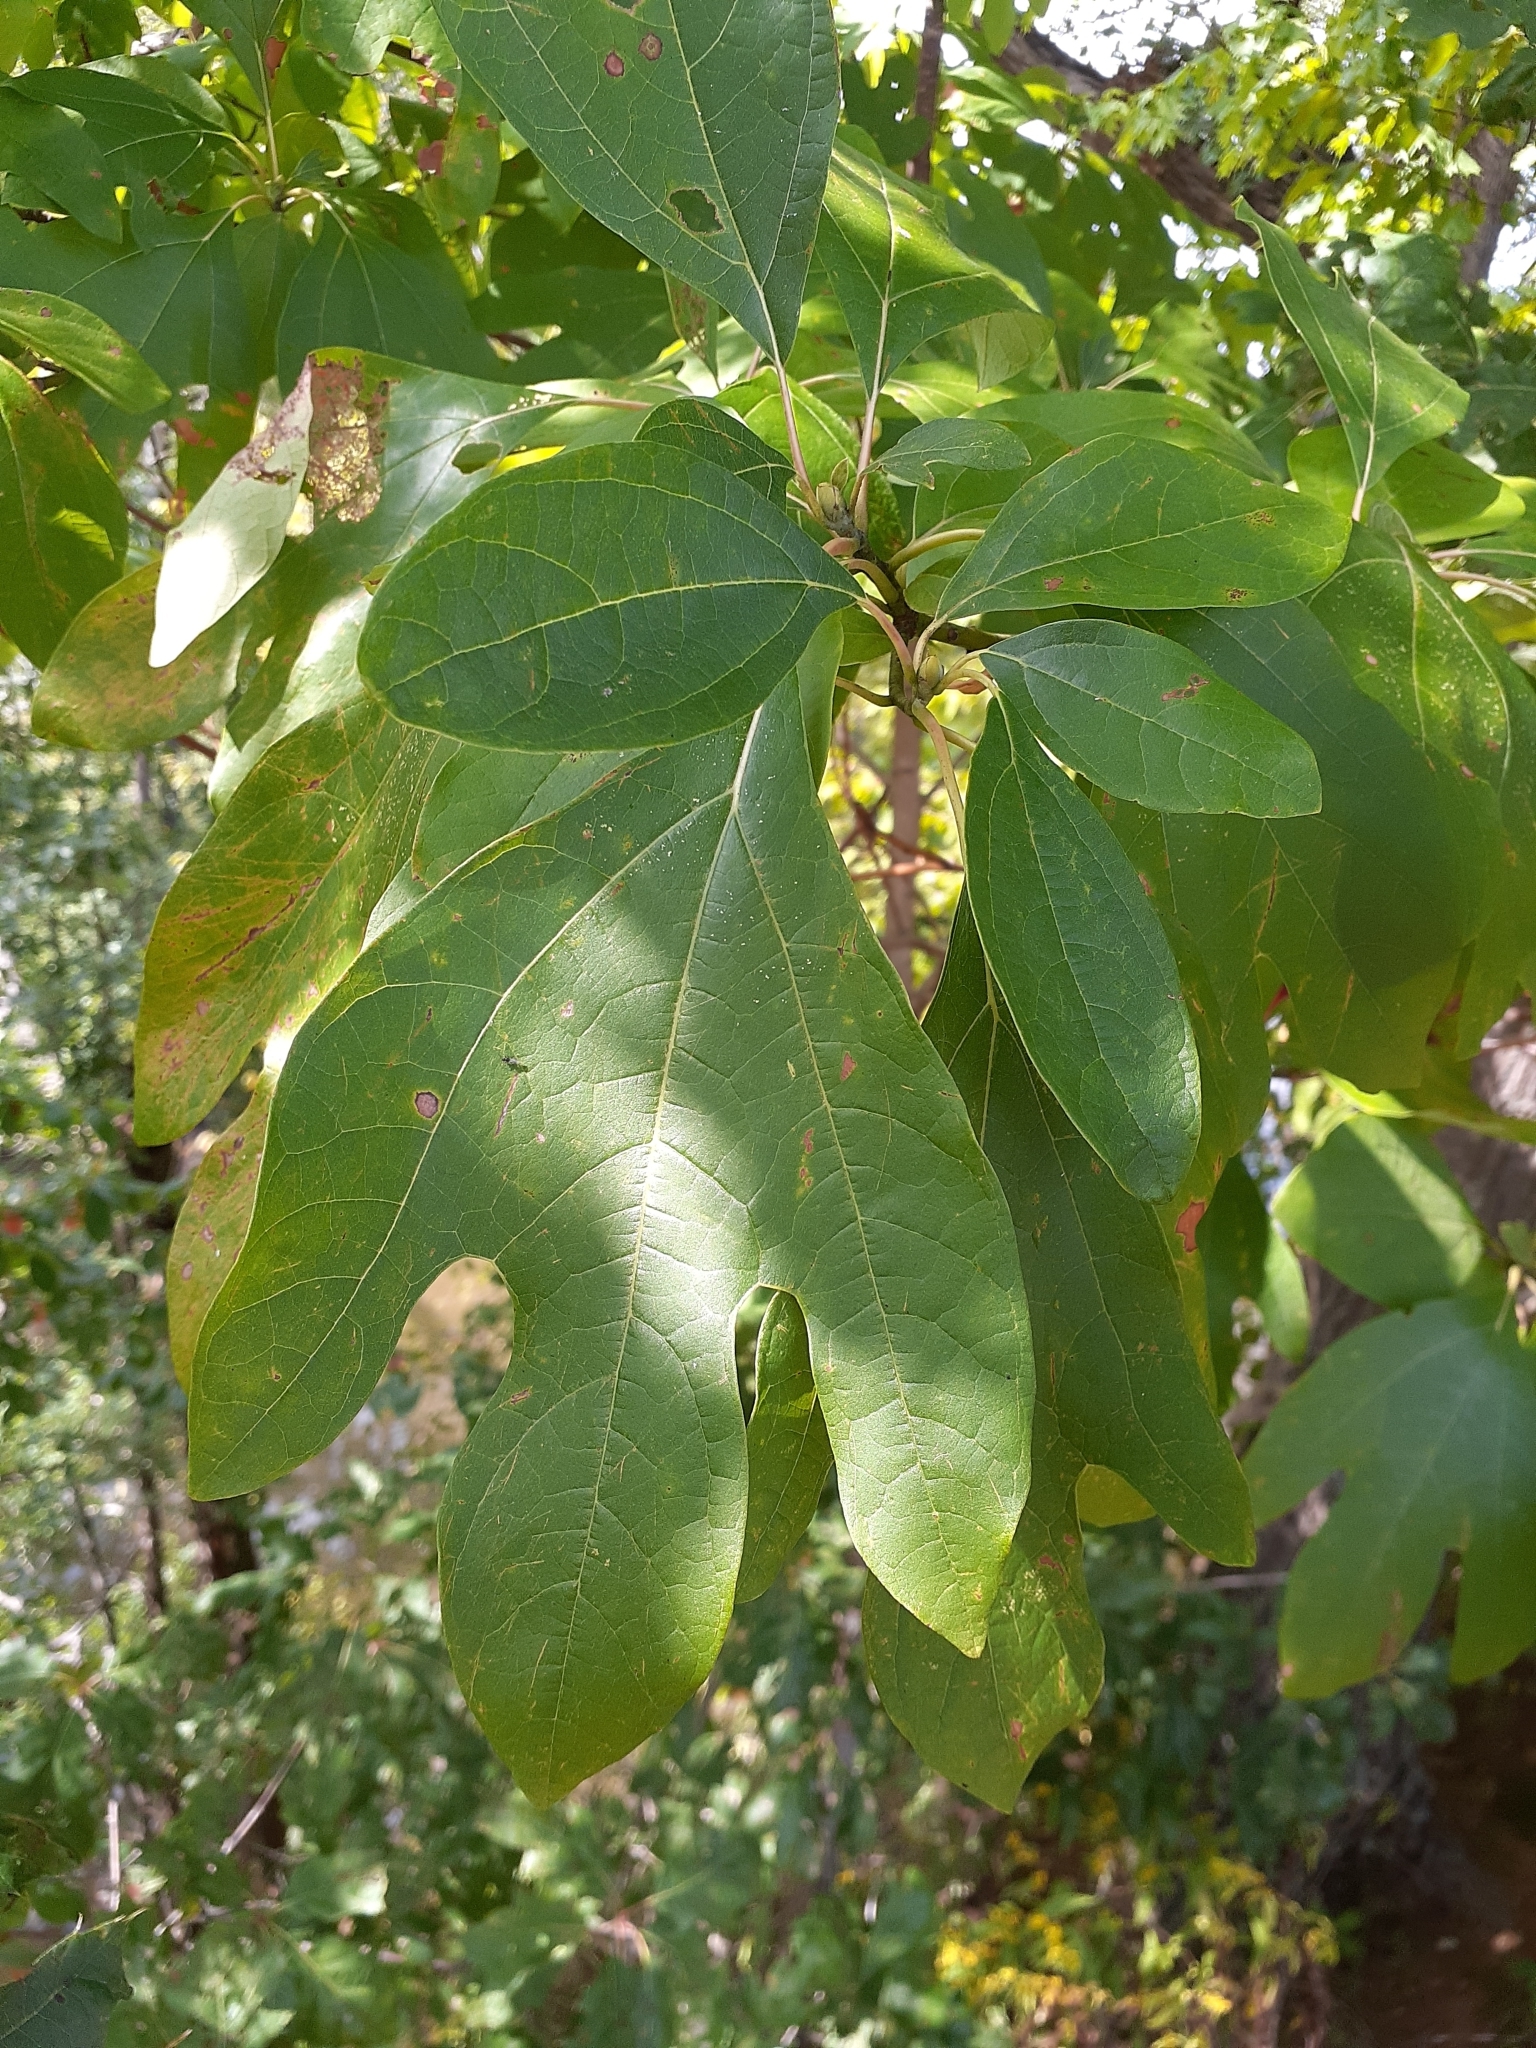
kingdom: Plantae
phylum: Tracheophyta
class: Magnoliopsida
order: Laurales
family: Lauraceae
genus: Sassafras
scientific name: Sassafras albidum
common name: Sassafras
